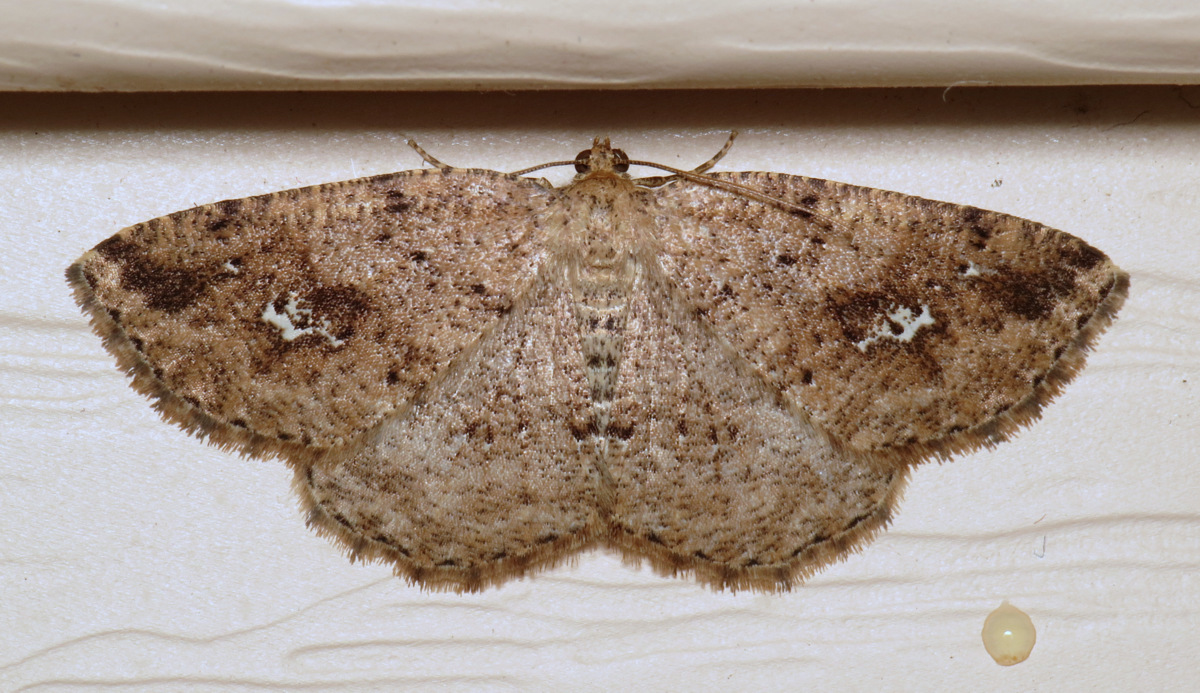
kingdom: Animalia
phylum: Arthropoda
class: Insecta
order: Lepidoptera
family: Geometridae
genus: Homochlodes
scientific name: Homochlodes fritillaria
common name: Pale homochlodes
